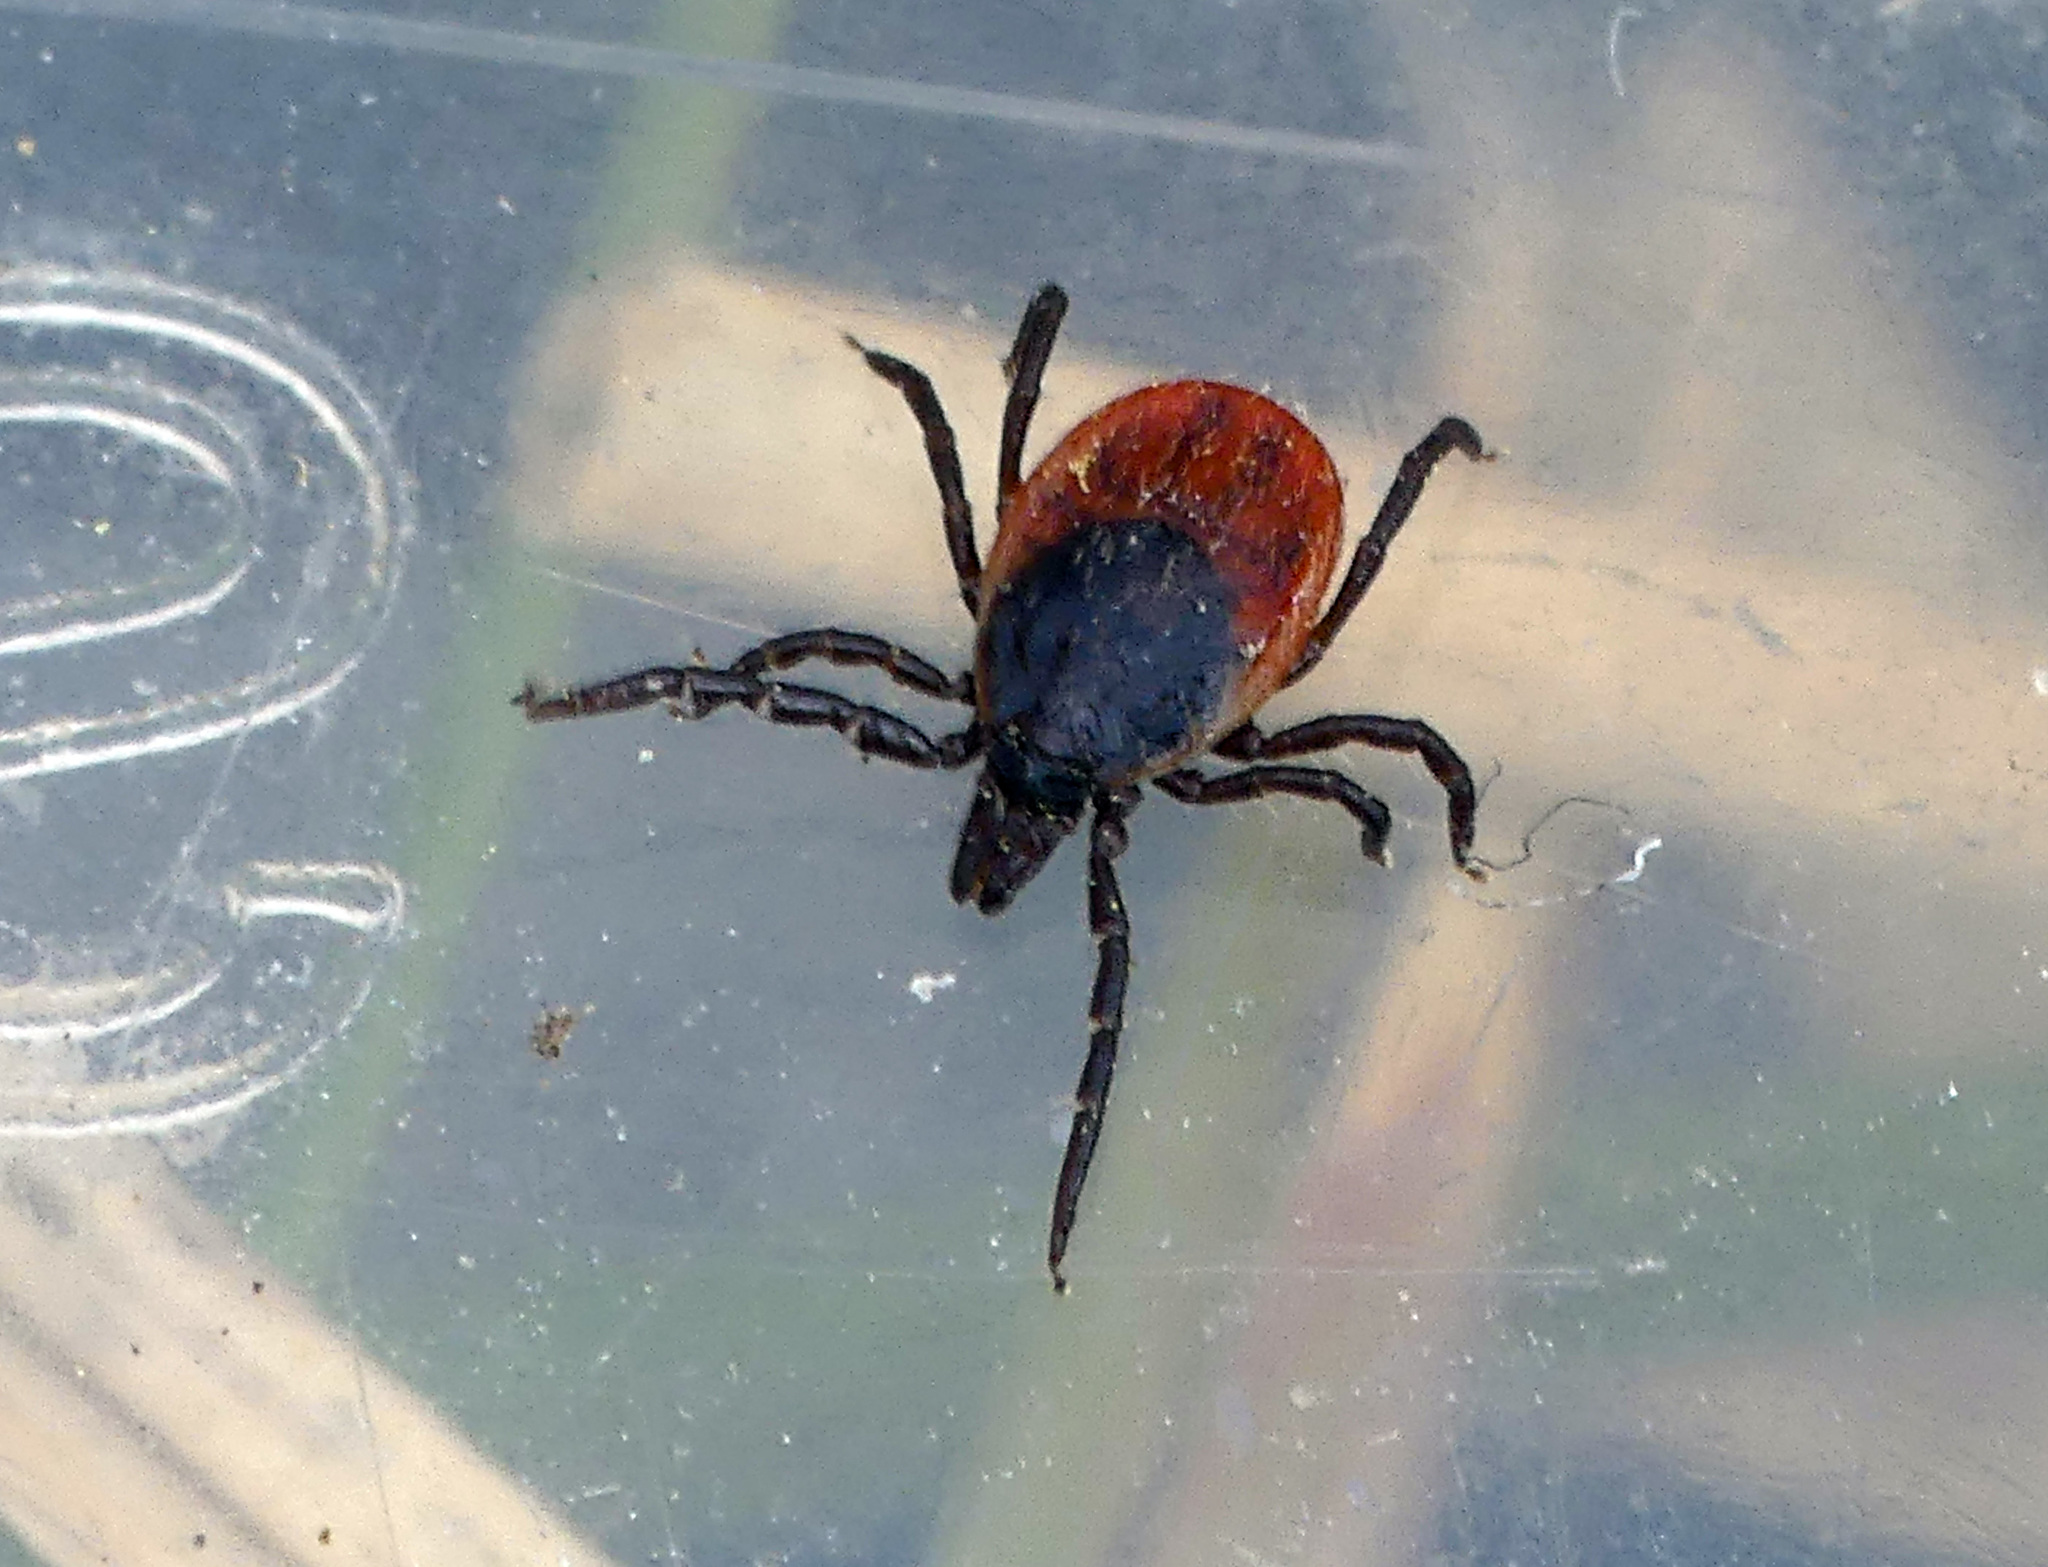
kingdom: Animalia
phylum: Arthropoda
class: Arachnida
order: Ixodida
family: Ixodidae
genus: Ixodes
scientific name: Ixodes ricinus
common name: Castor bean tick
